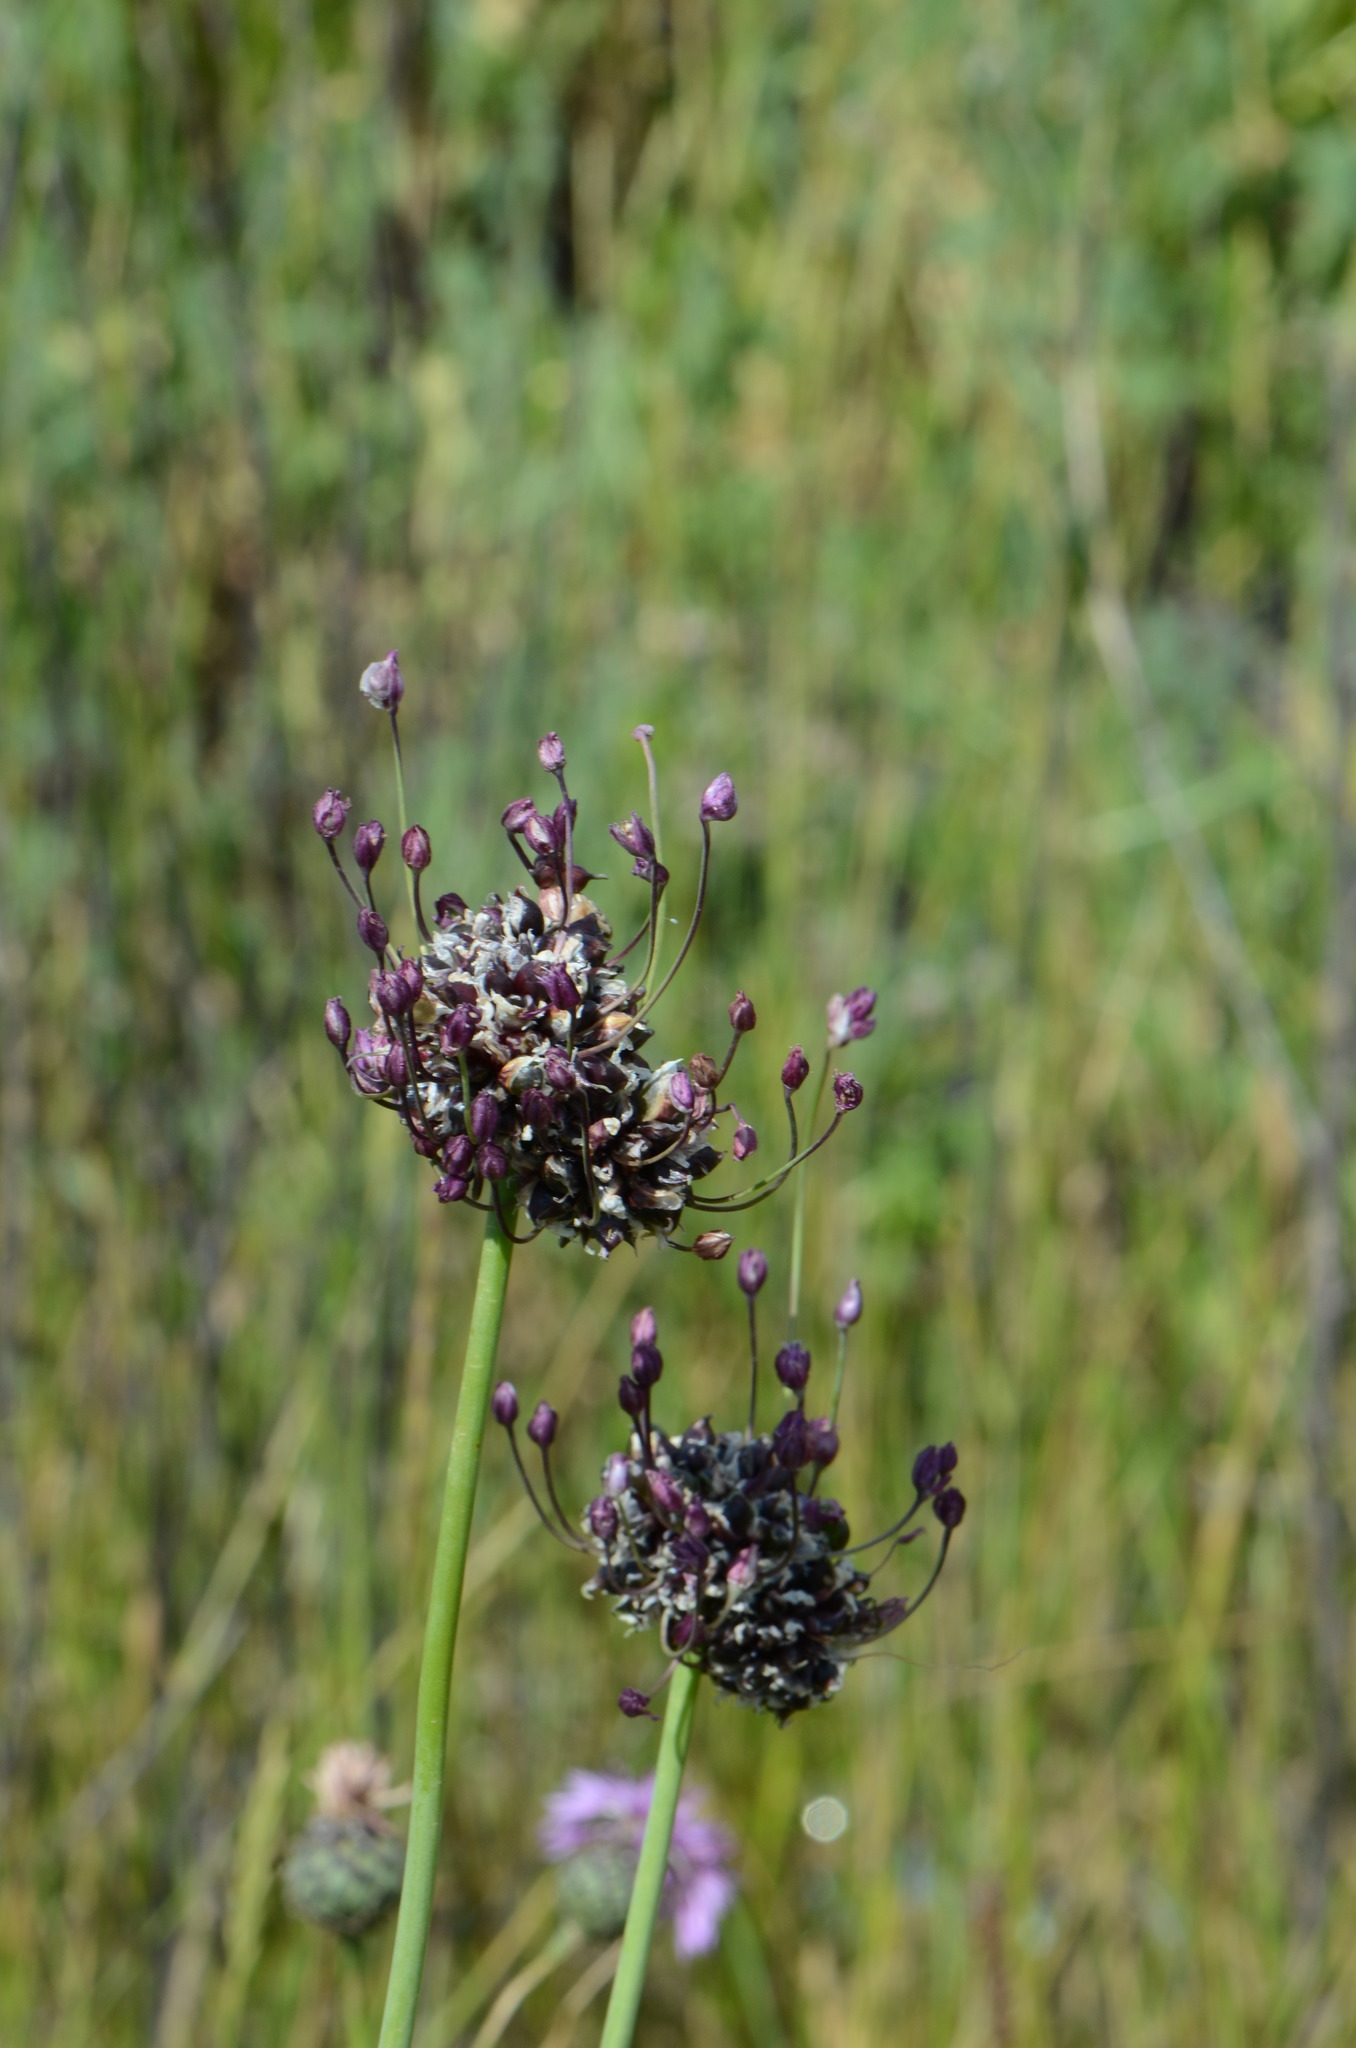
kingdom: Plantae
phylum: Tracheophyta
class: Liliopsida
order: Asparagales
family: Amaryllidaceae
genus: Allium
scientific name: Allium scorodoprasum
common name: Sand leek
